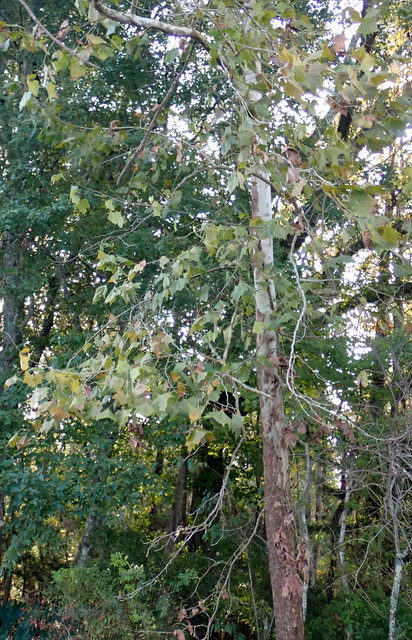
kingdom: Plantae
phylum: Tracheophyta
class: Magnoliopsida
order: Proteales
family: Platanaceae
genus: Platanus
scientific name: Platanus occidentalis
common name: American sycamore
